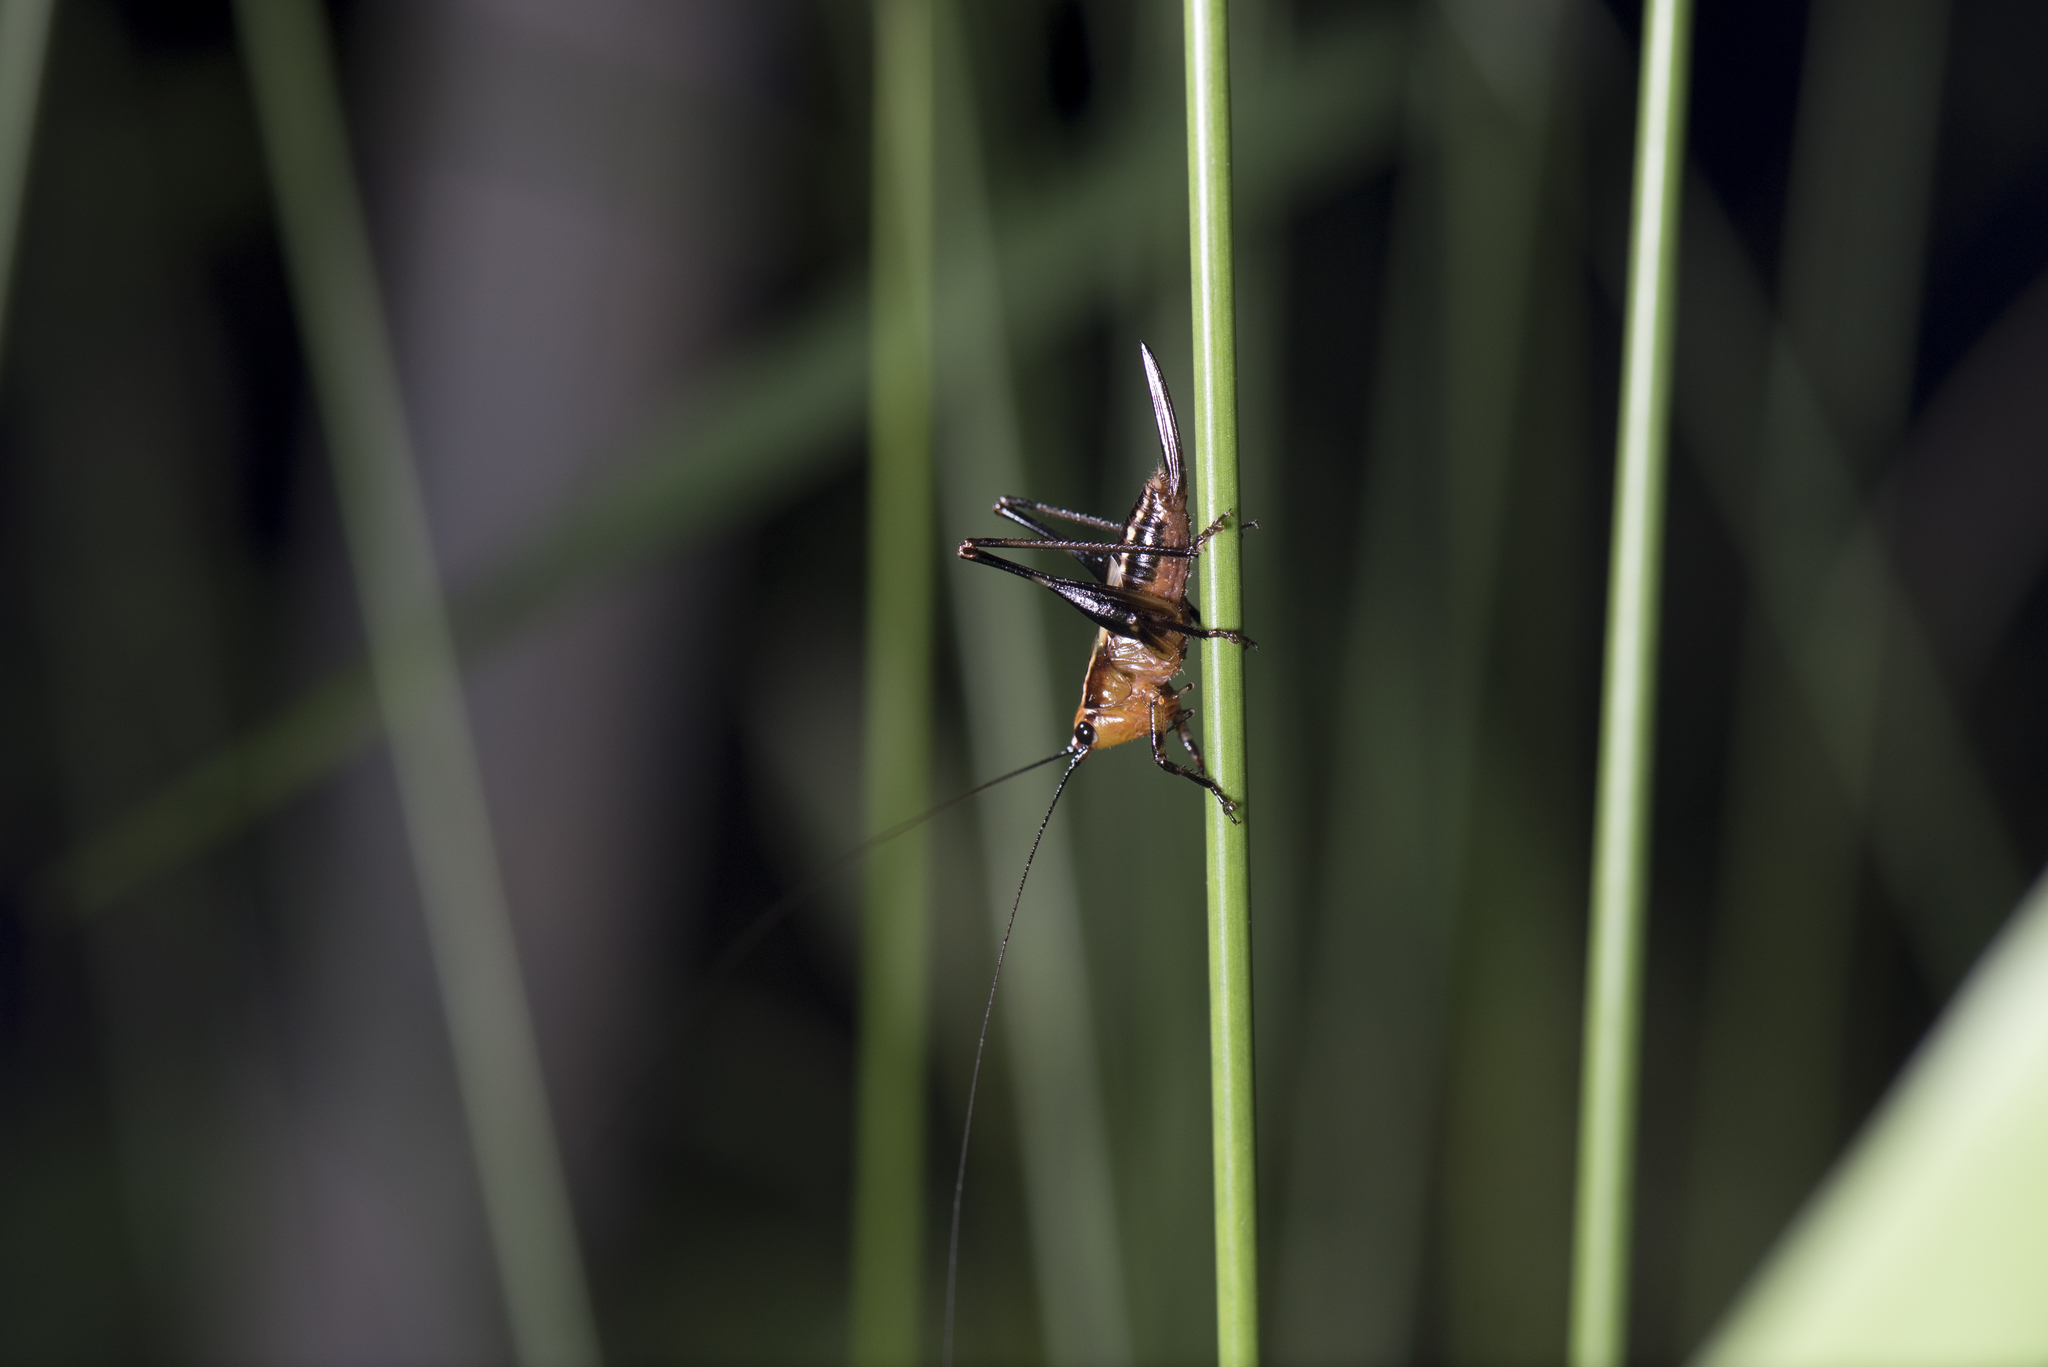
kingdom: Animalia
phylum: Arthropoda
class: Insecta
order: Orthoptera
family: Tettigoniidae
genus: Conocephalus
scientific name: Conocephalus melaenus
